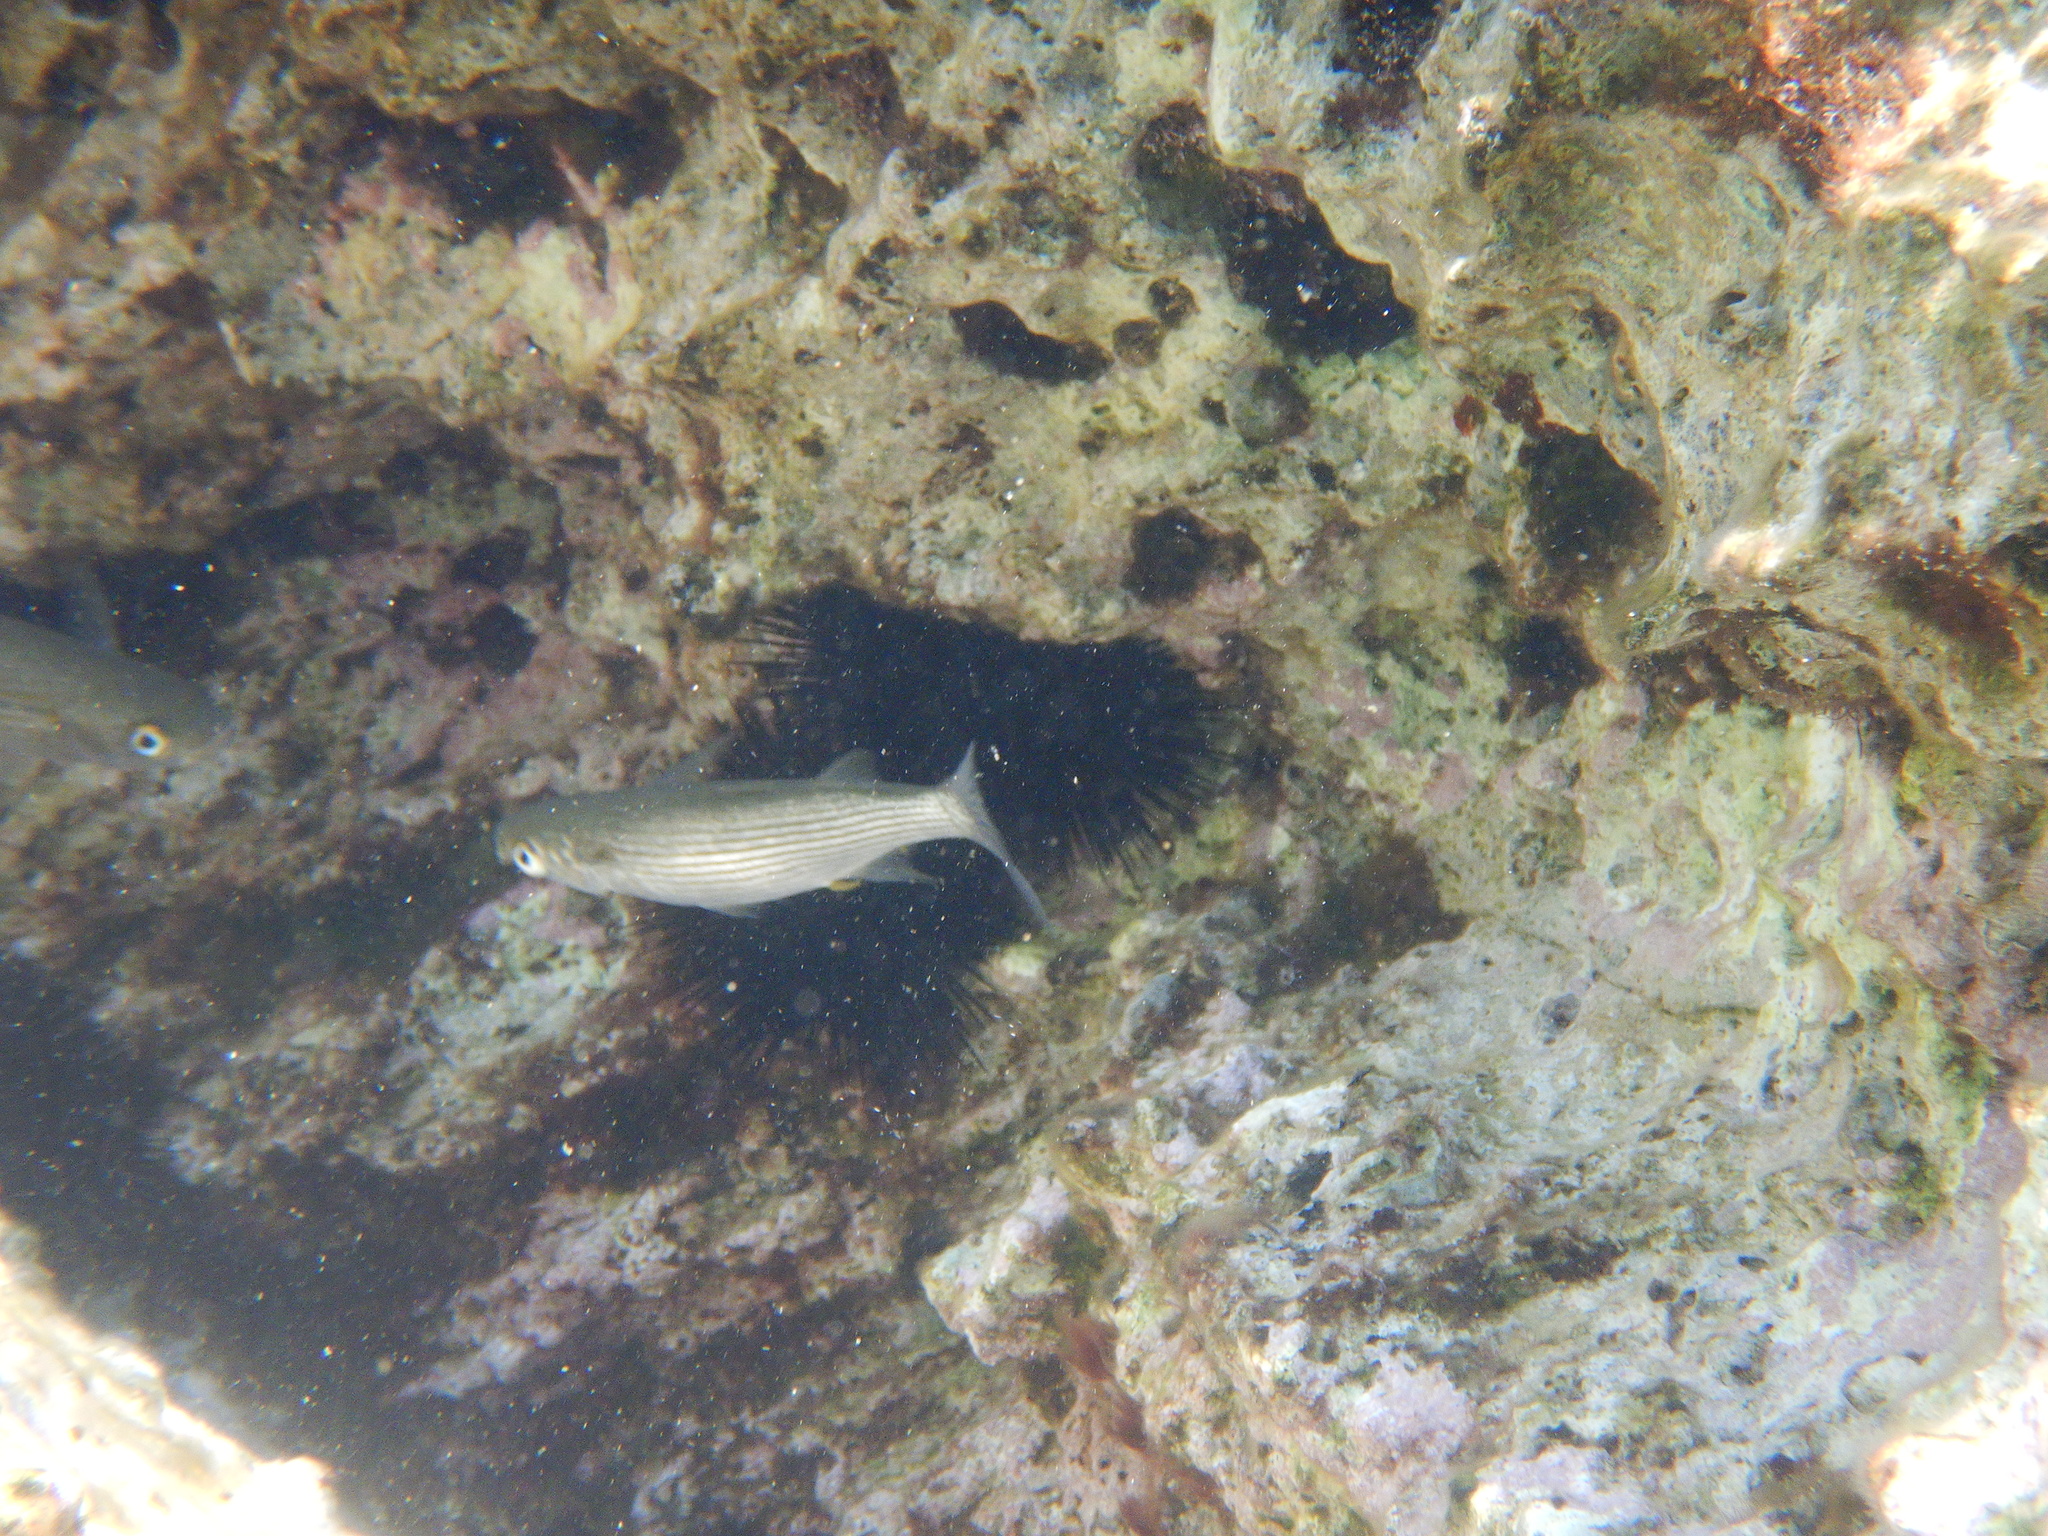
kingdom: Animalia
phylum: Chordata
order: Mugiliformes
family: Mugilidae
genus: Oedalechilus
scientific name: Oedalechilus labeo
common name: Boxlip mullet
